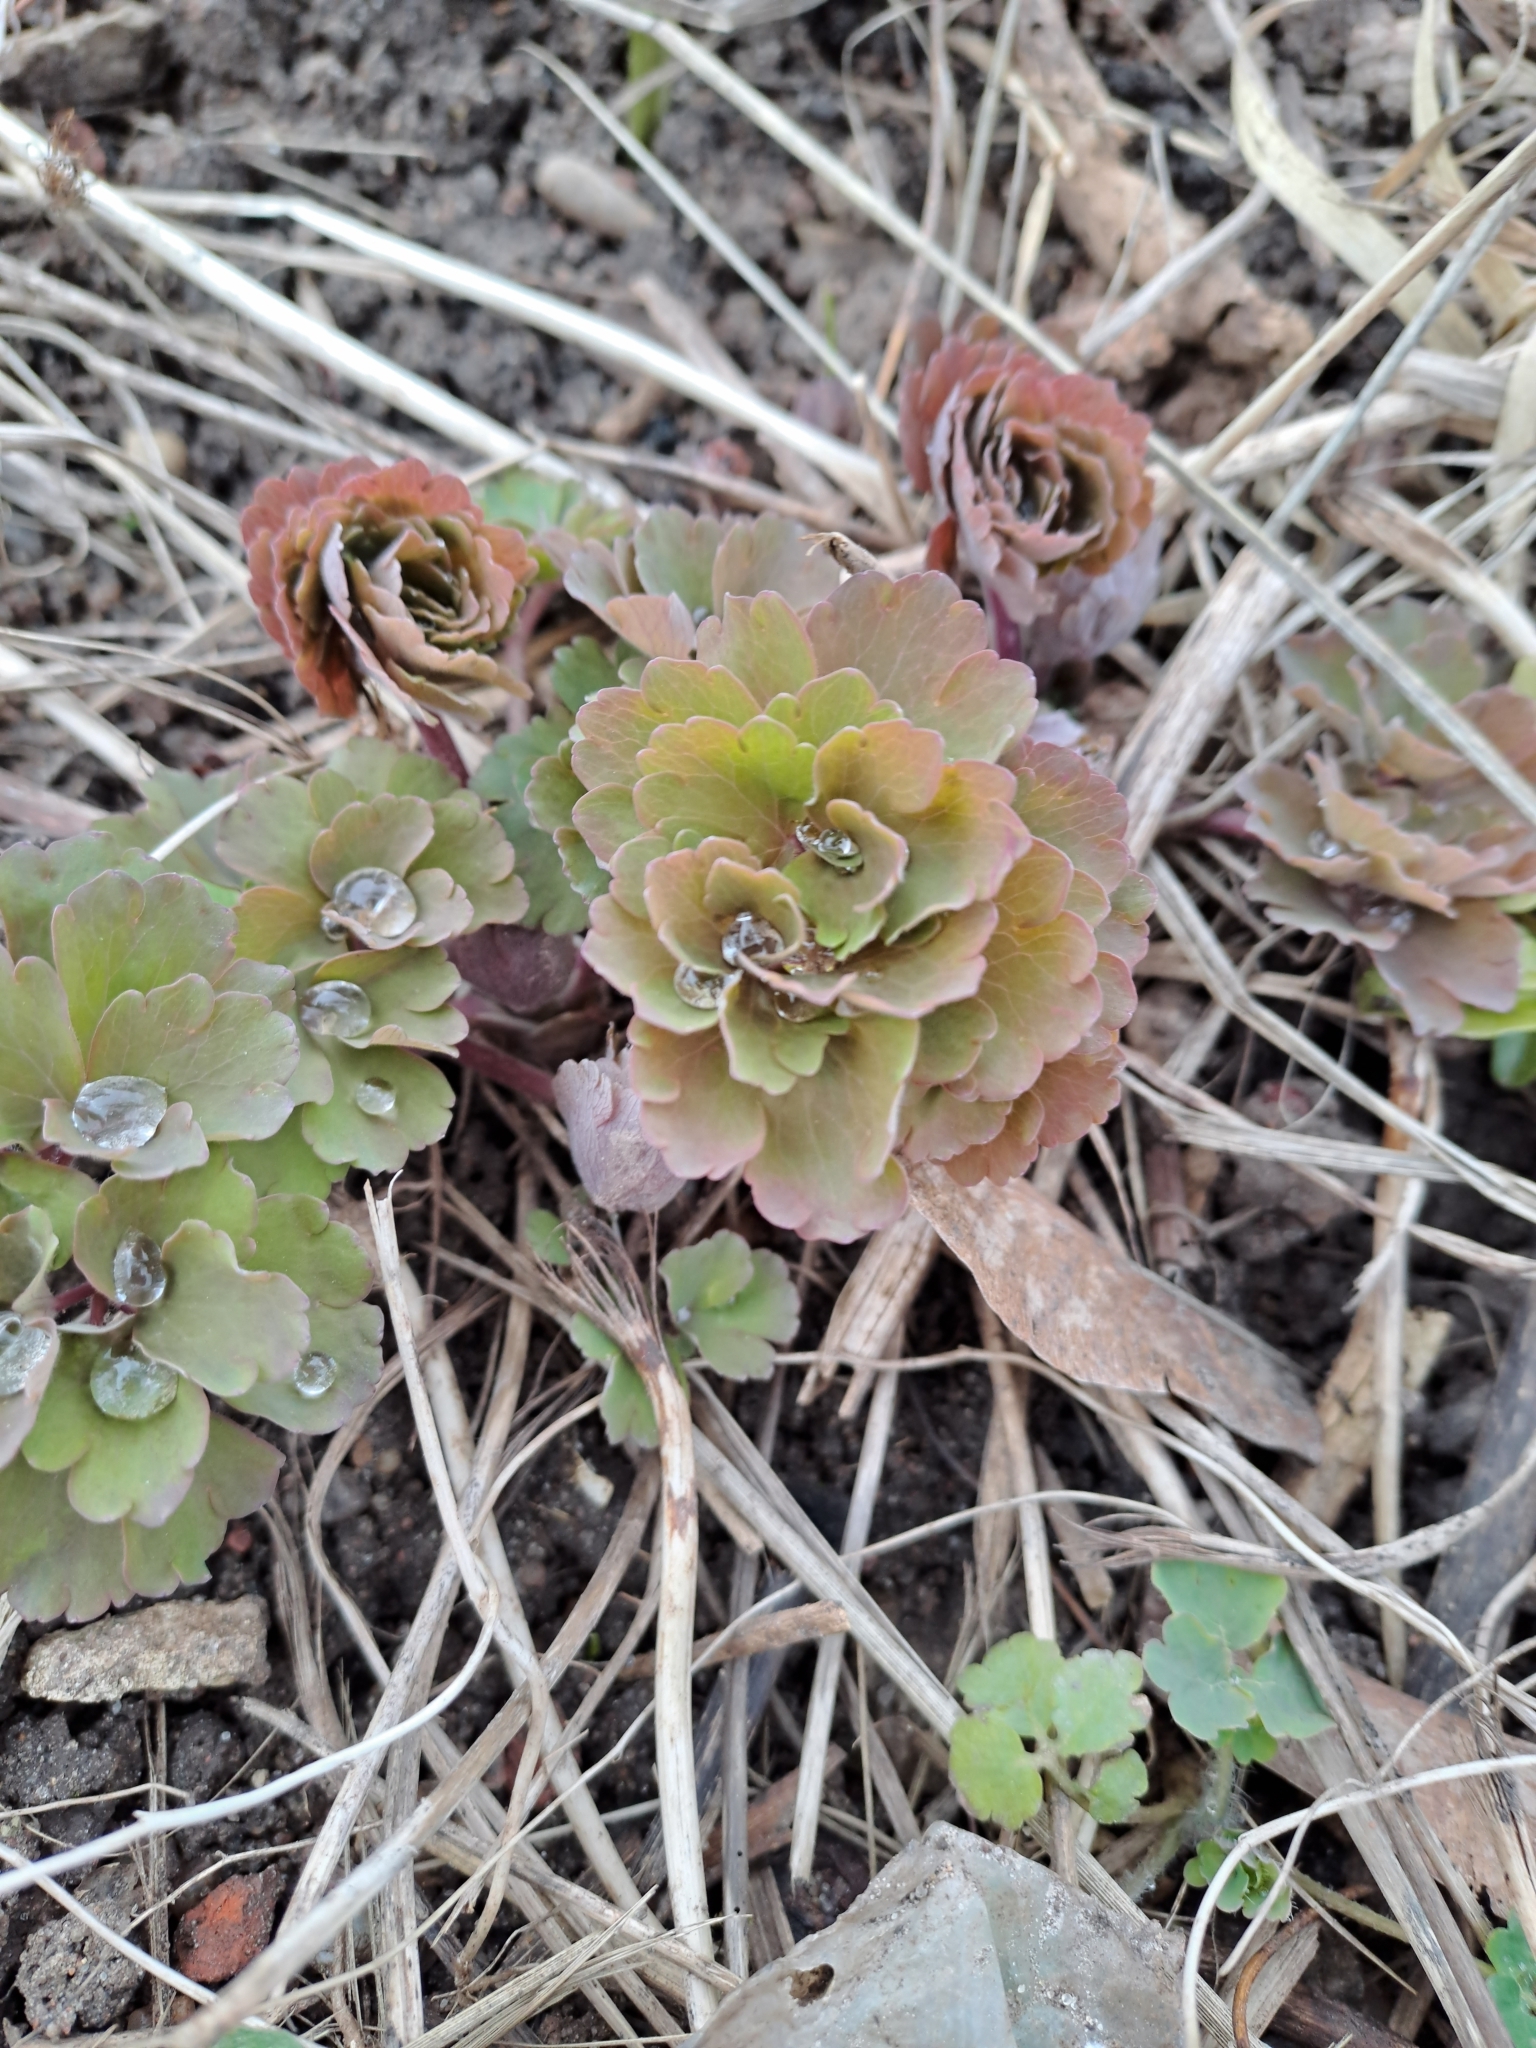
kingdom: Plantae
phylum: Tracheophyta
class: Magnoliopsida
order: Ranunculales
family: Ranunculaceae
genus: Aquilegia
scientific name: Aquilegia vulgaris
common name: Columbine
